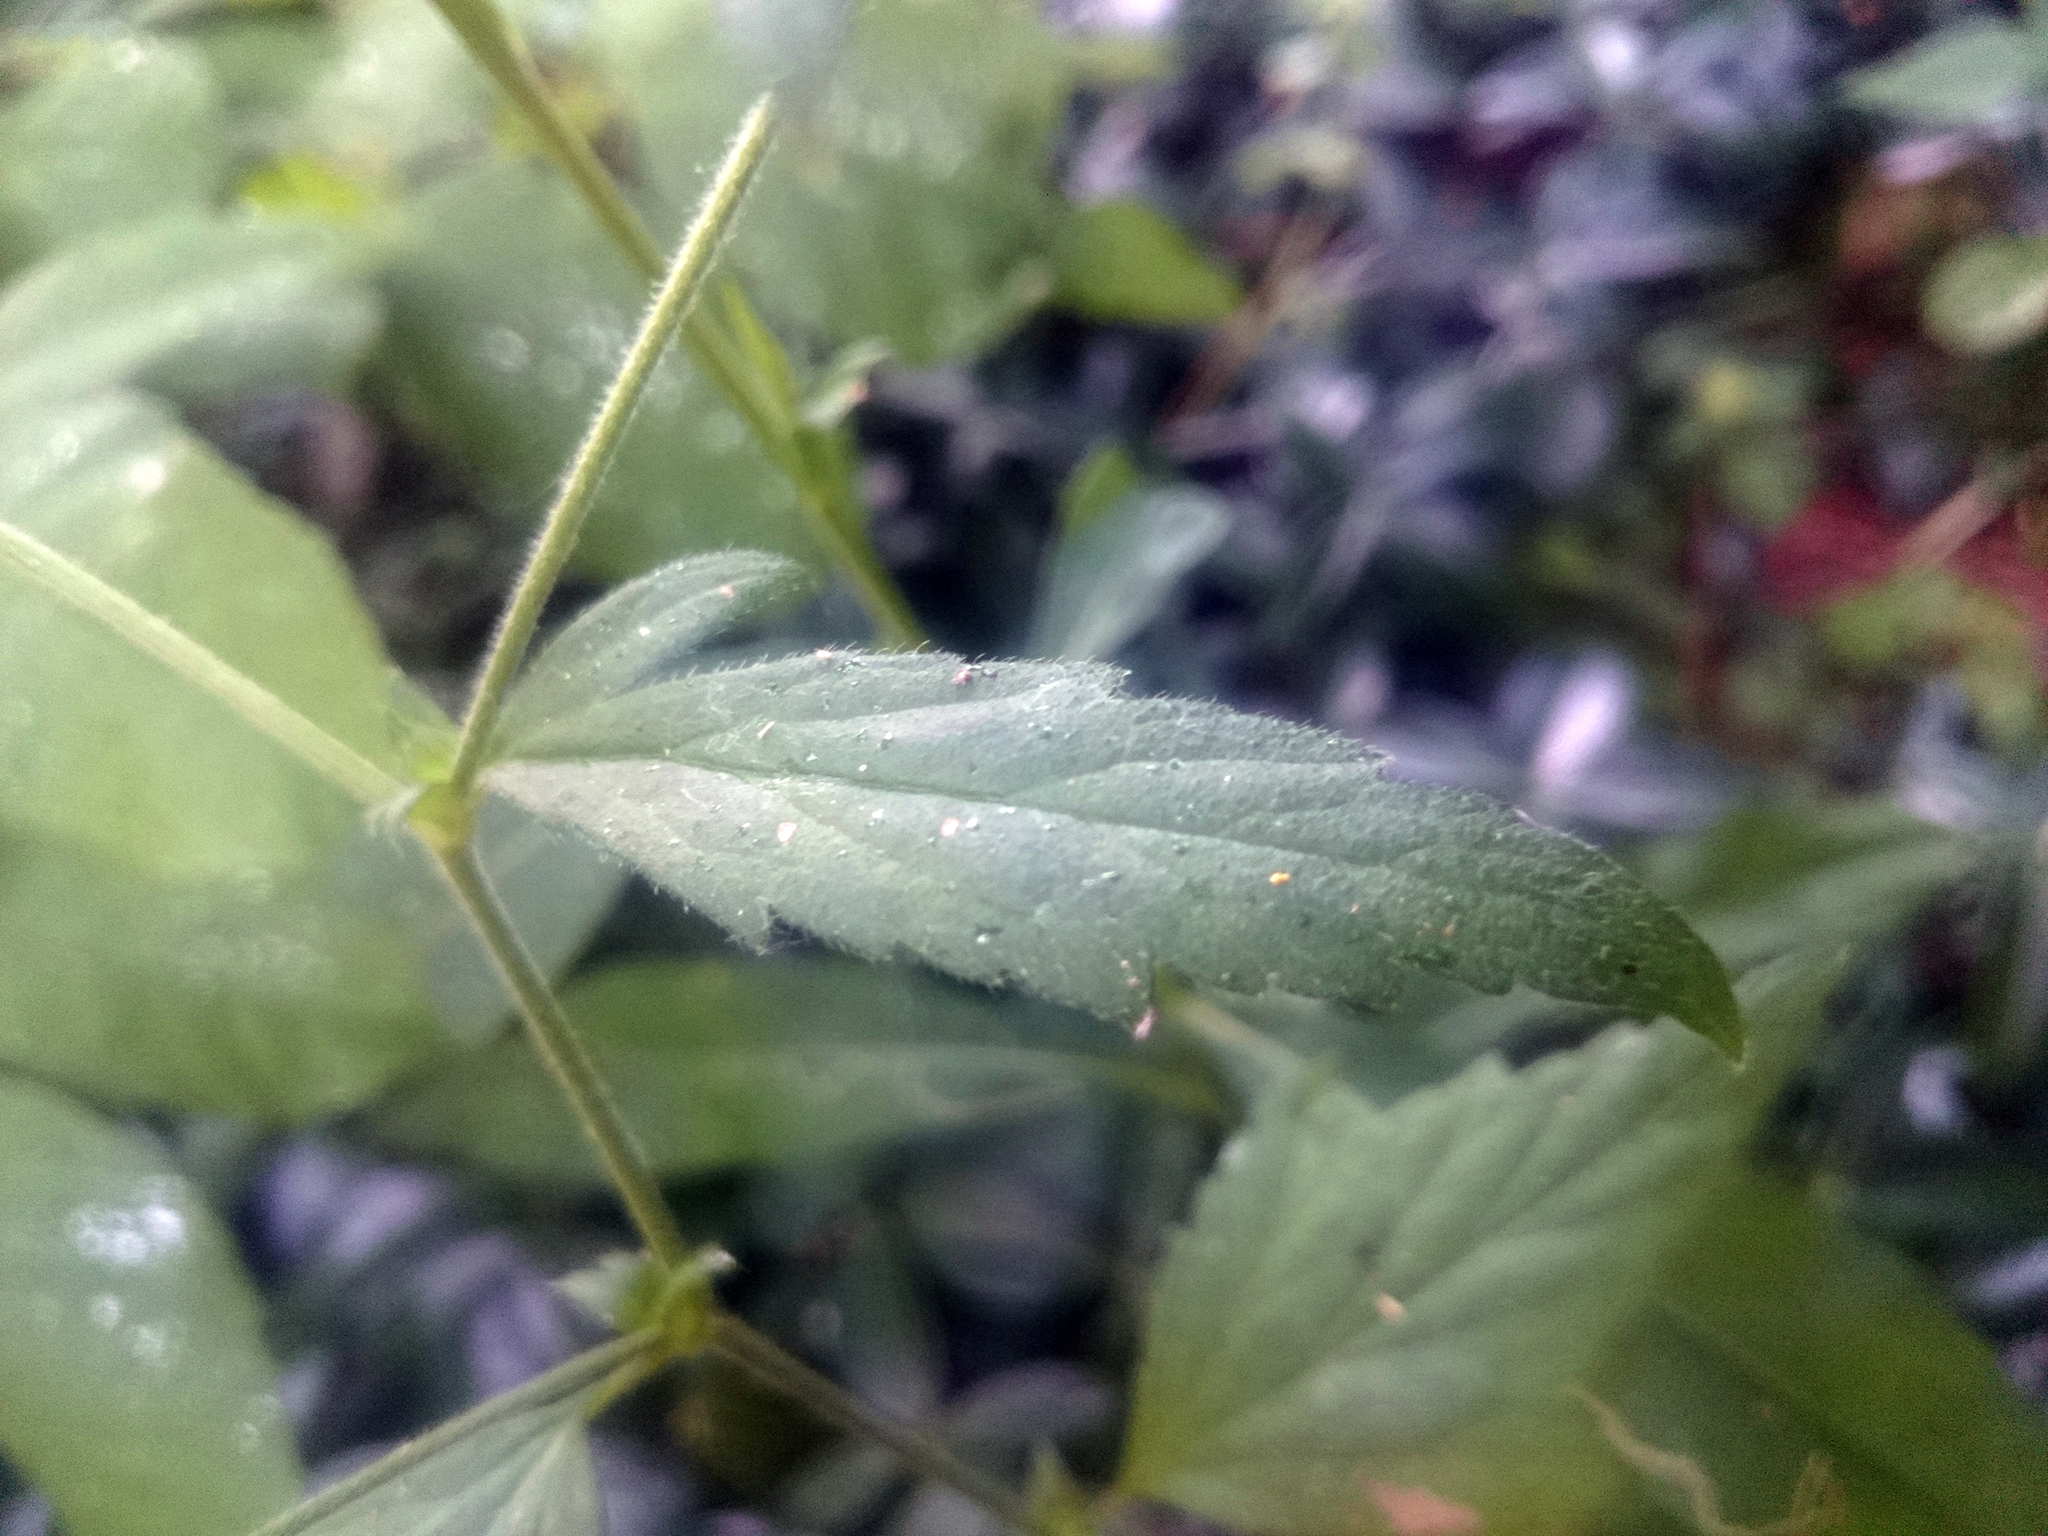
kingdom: Plantae
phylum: Tracheophyta
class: Magnoliopsida
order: Rosales
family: Rosaceae
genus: Geum
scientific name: Geum canadense
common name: White avens
